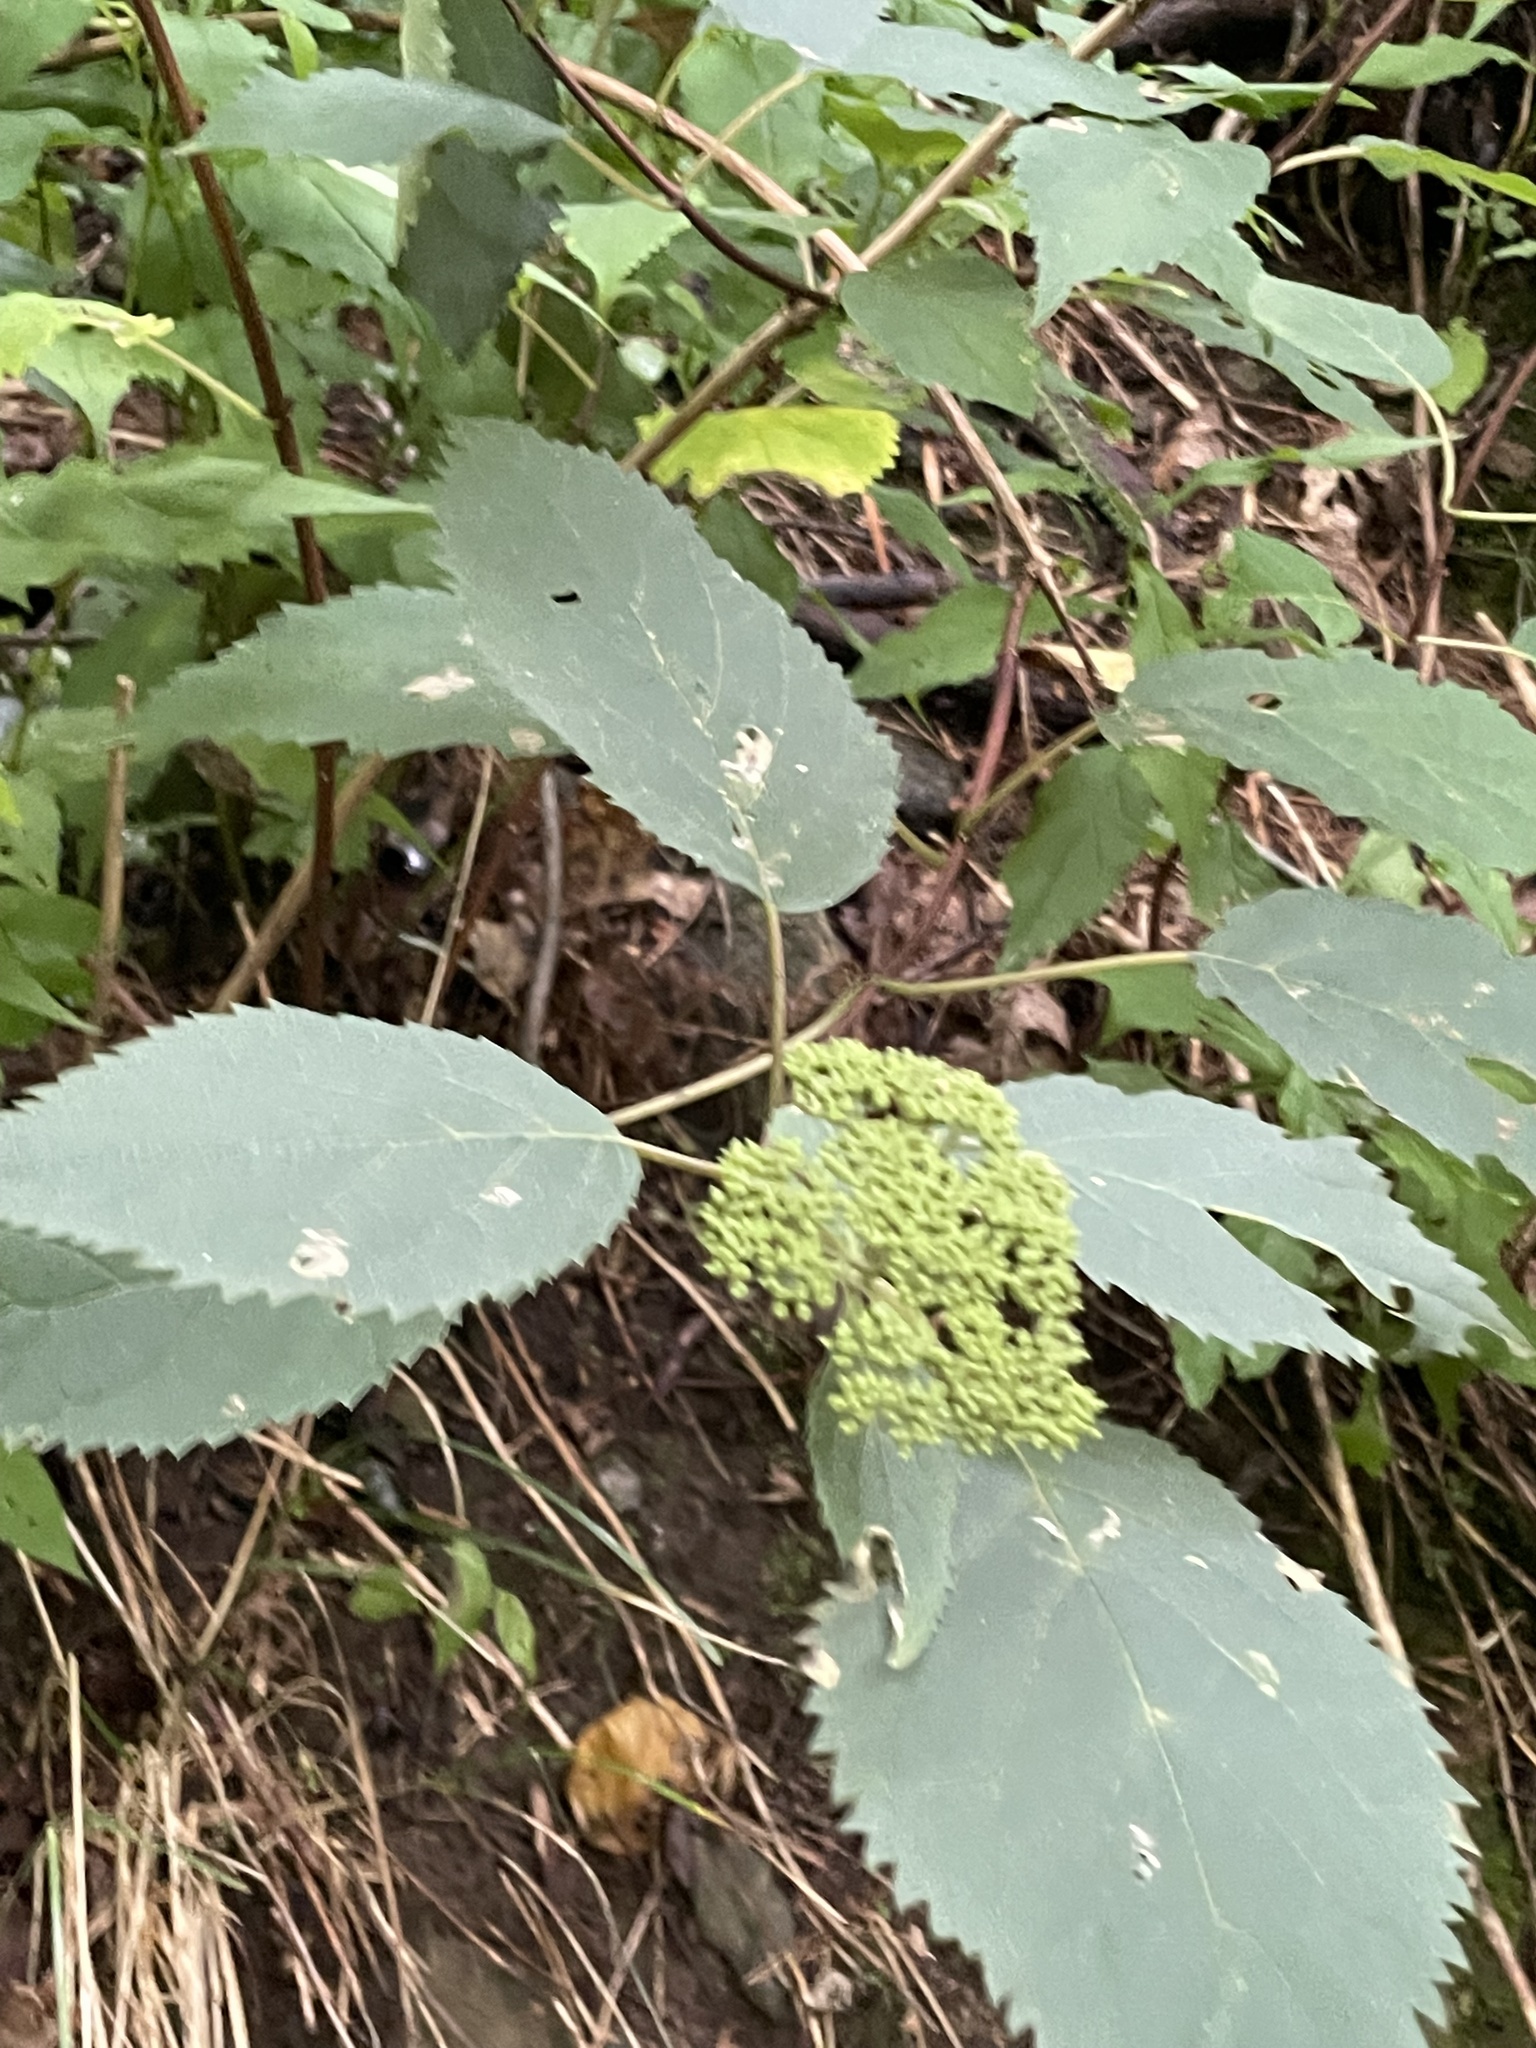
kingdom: Plantae
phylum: Tracheophyta
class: Magnoliopsida
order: Cornales
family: Hydrangeaceae
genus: Hydrangea
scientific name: Hydrangea arborescens
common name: Sevenbark
